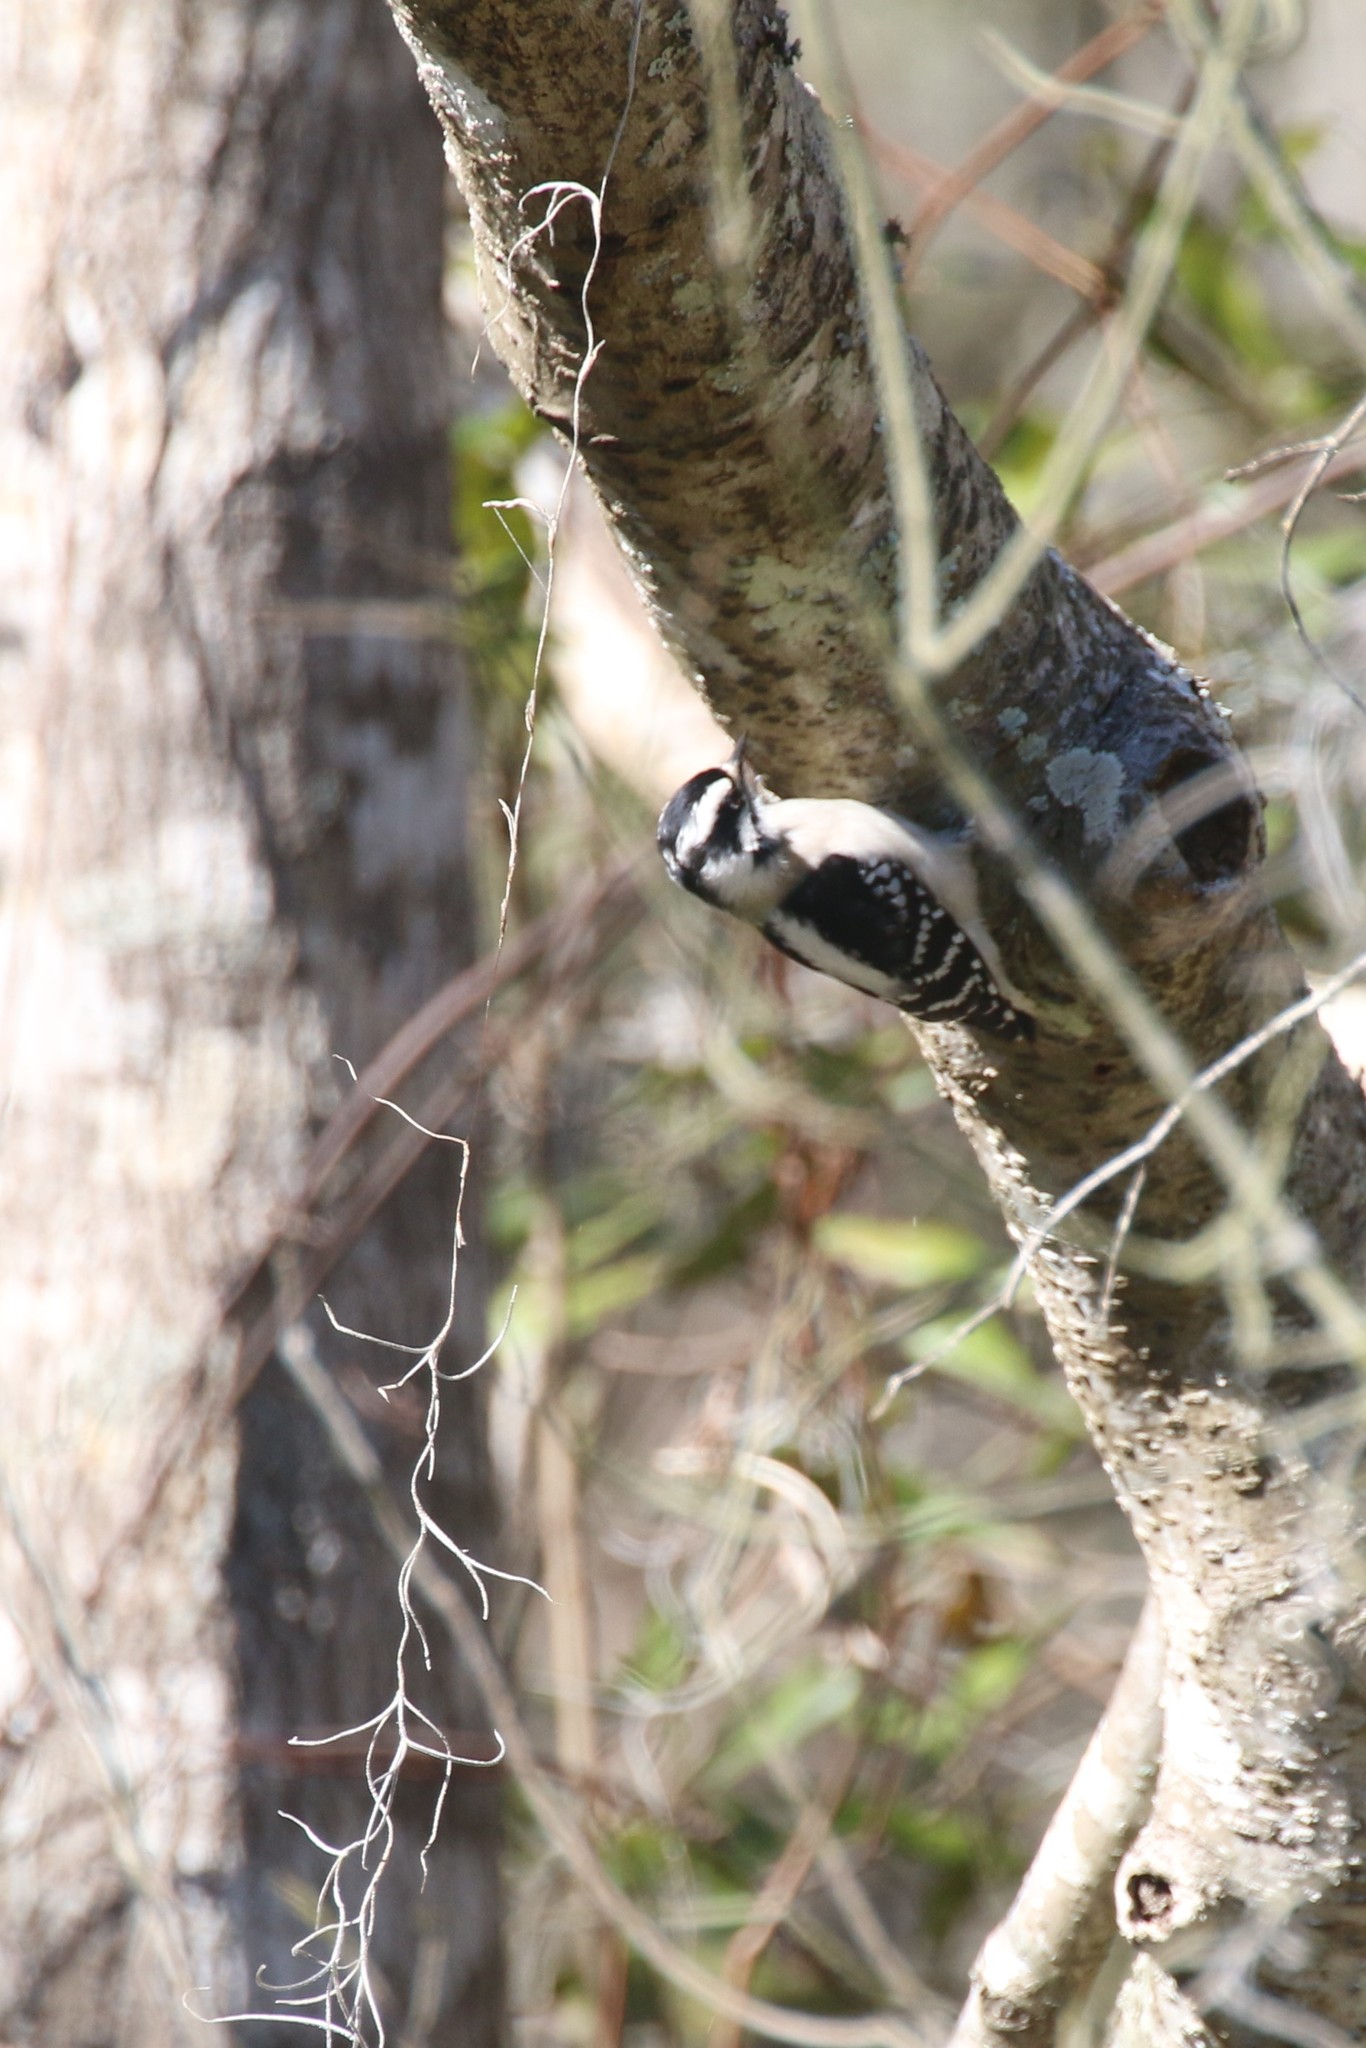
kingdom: Animalia
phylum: Chordata
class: Aves
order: Piciformes
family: Picidae
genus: Dryobates
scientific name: Dryobates pubescens
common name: Downy woodpecker
